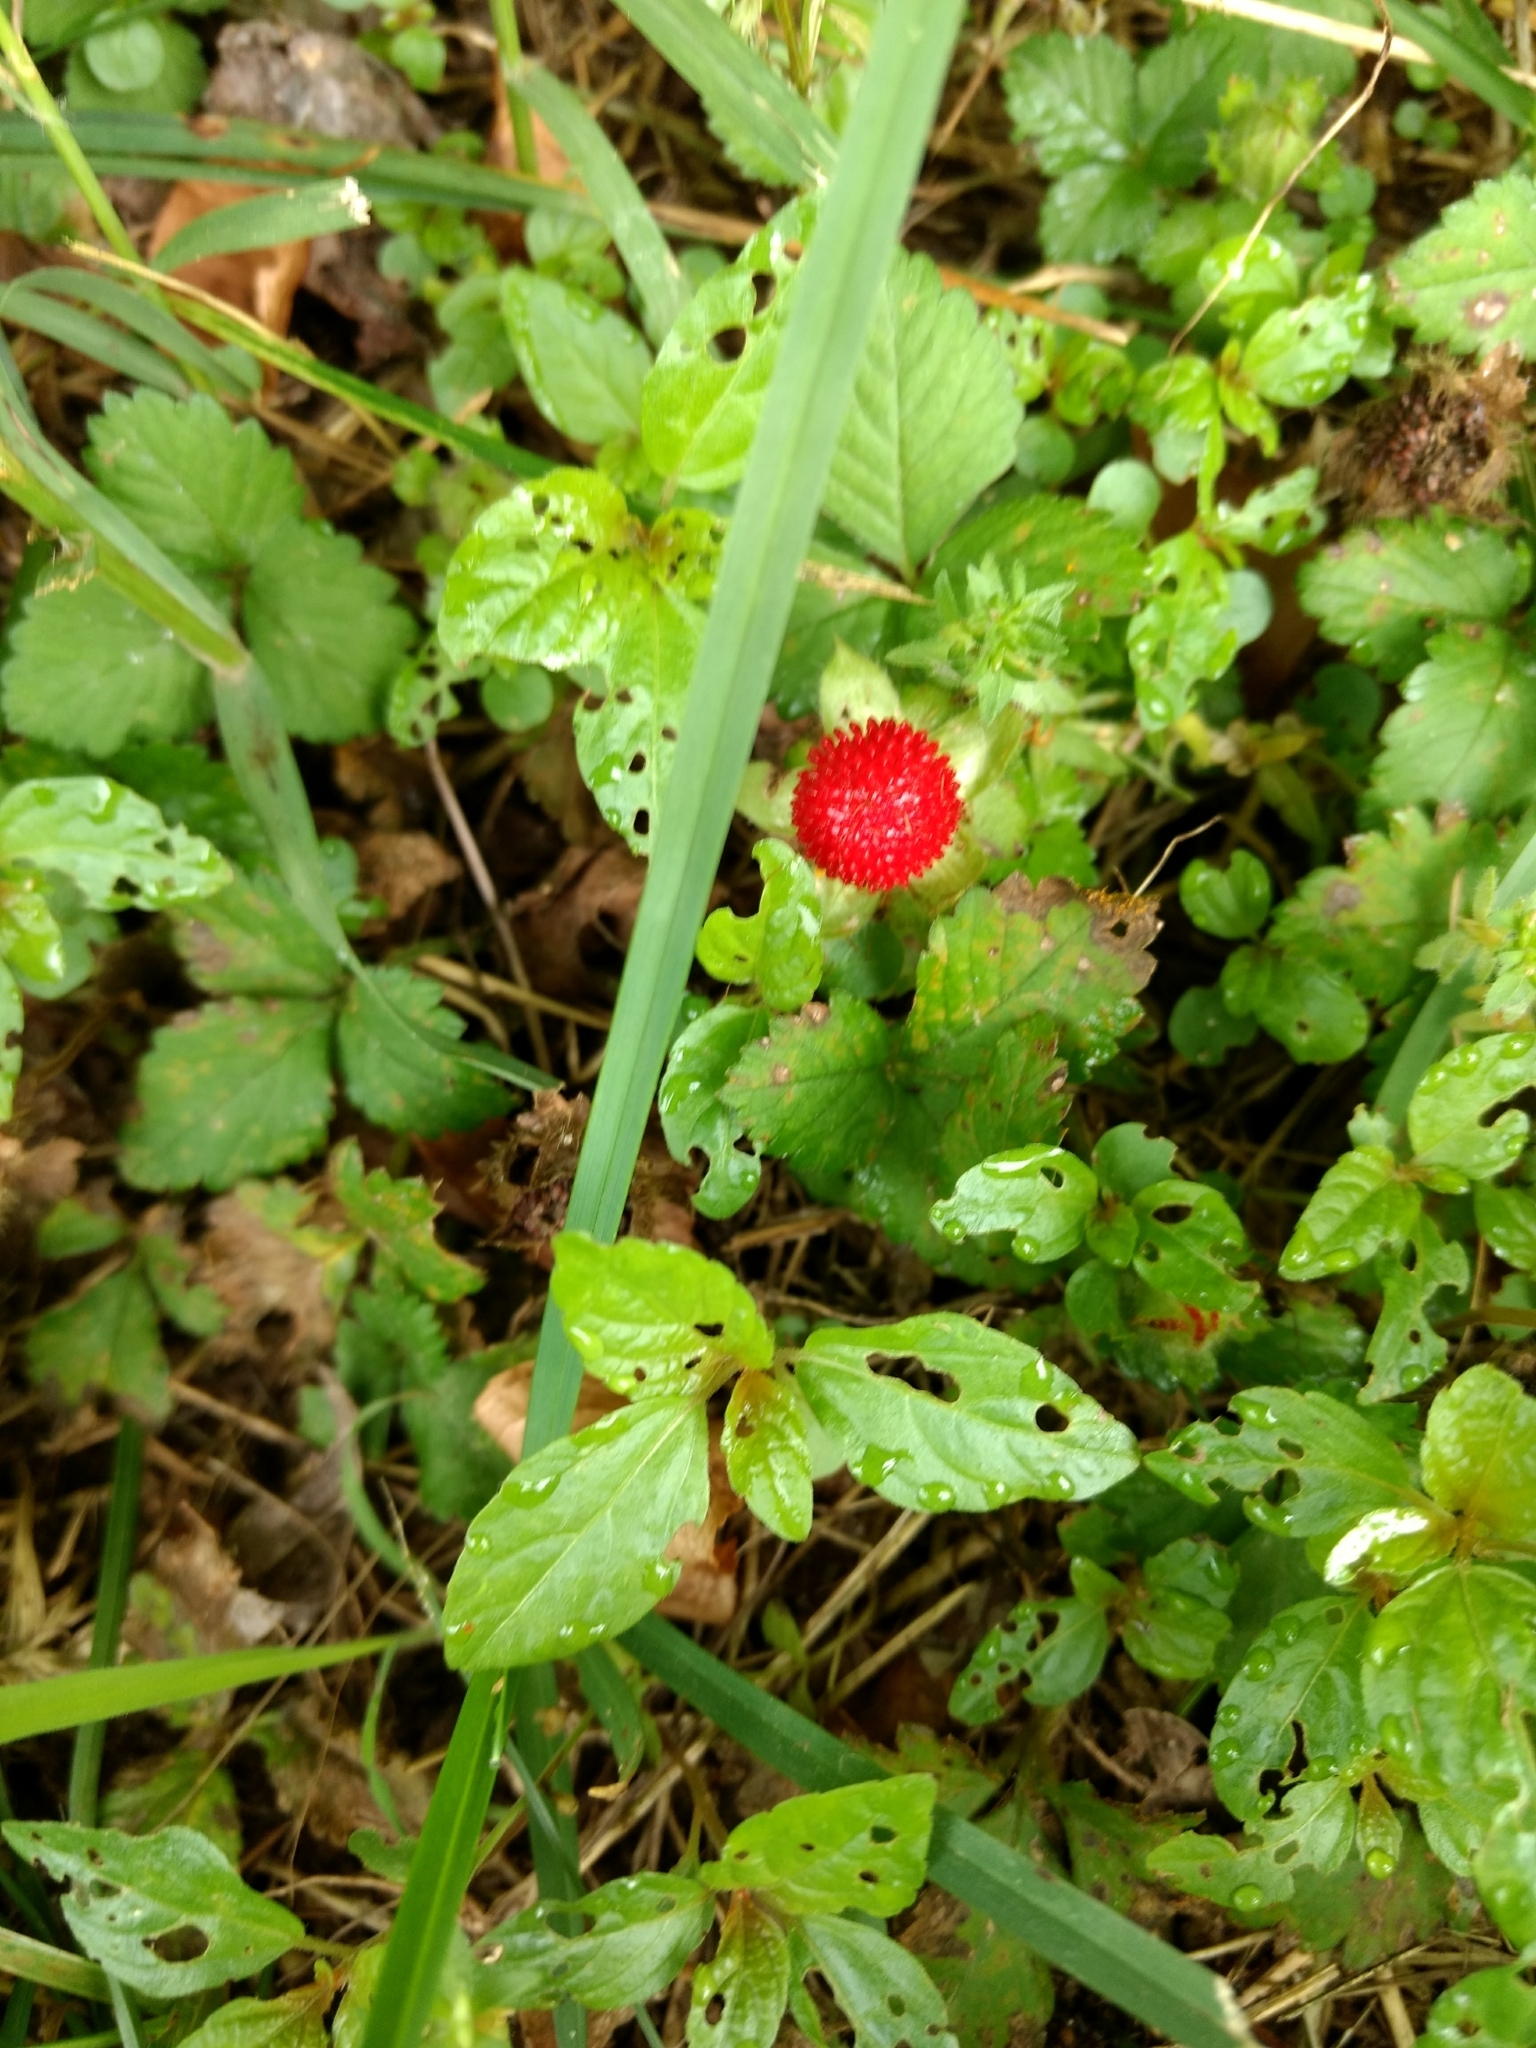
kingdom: Plantae
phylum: Tracheophyta
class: Magnoliopsida
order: Rosales
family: Rosaceae
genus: Potentilla
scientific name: Potentilla indica
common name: Yellow-flowered strawberry
